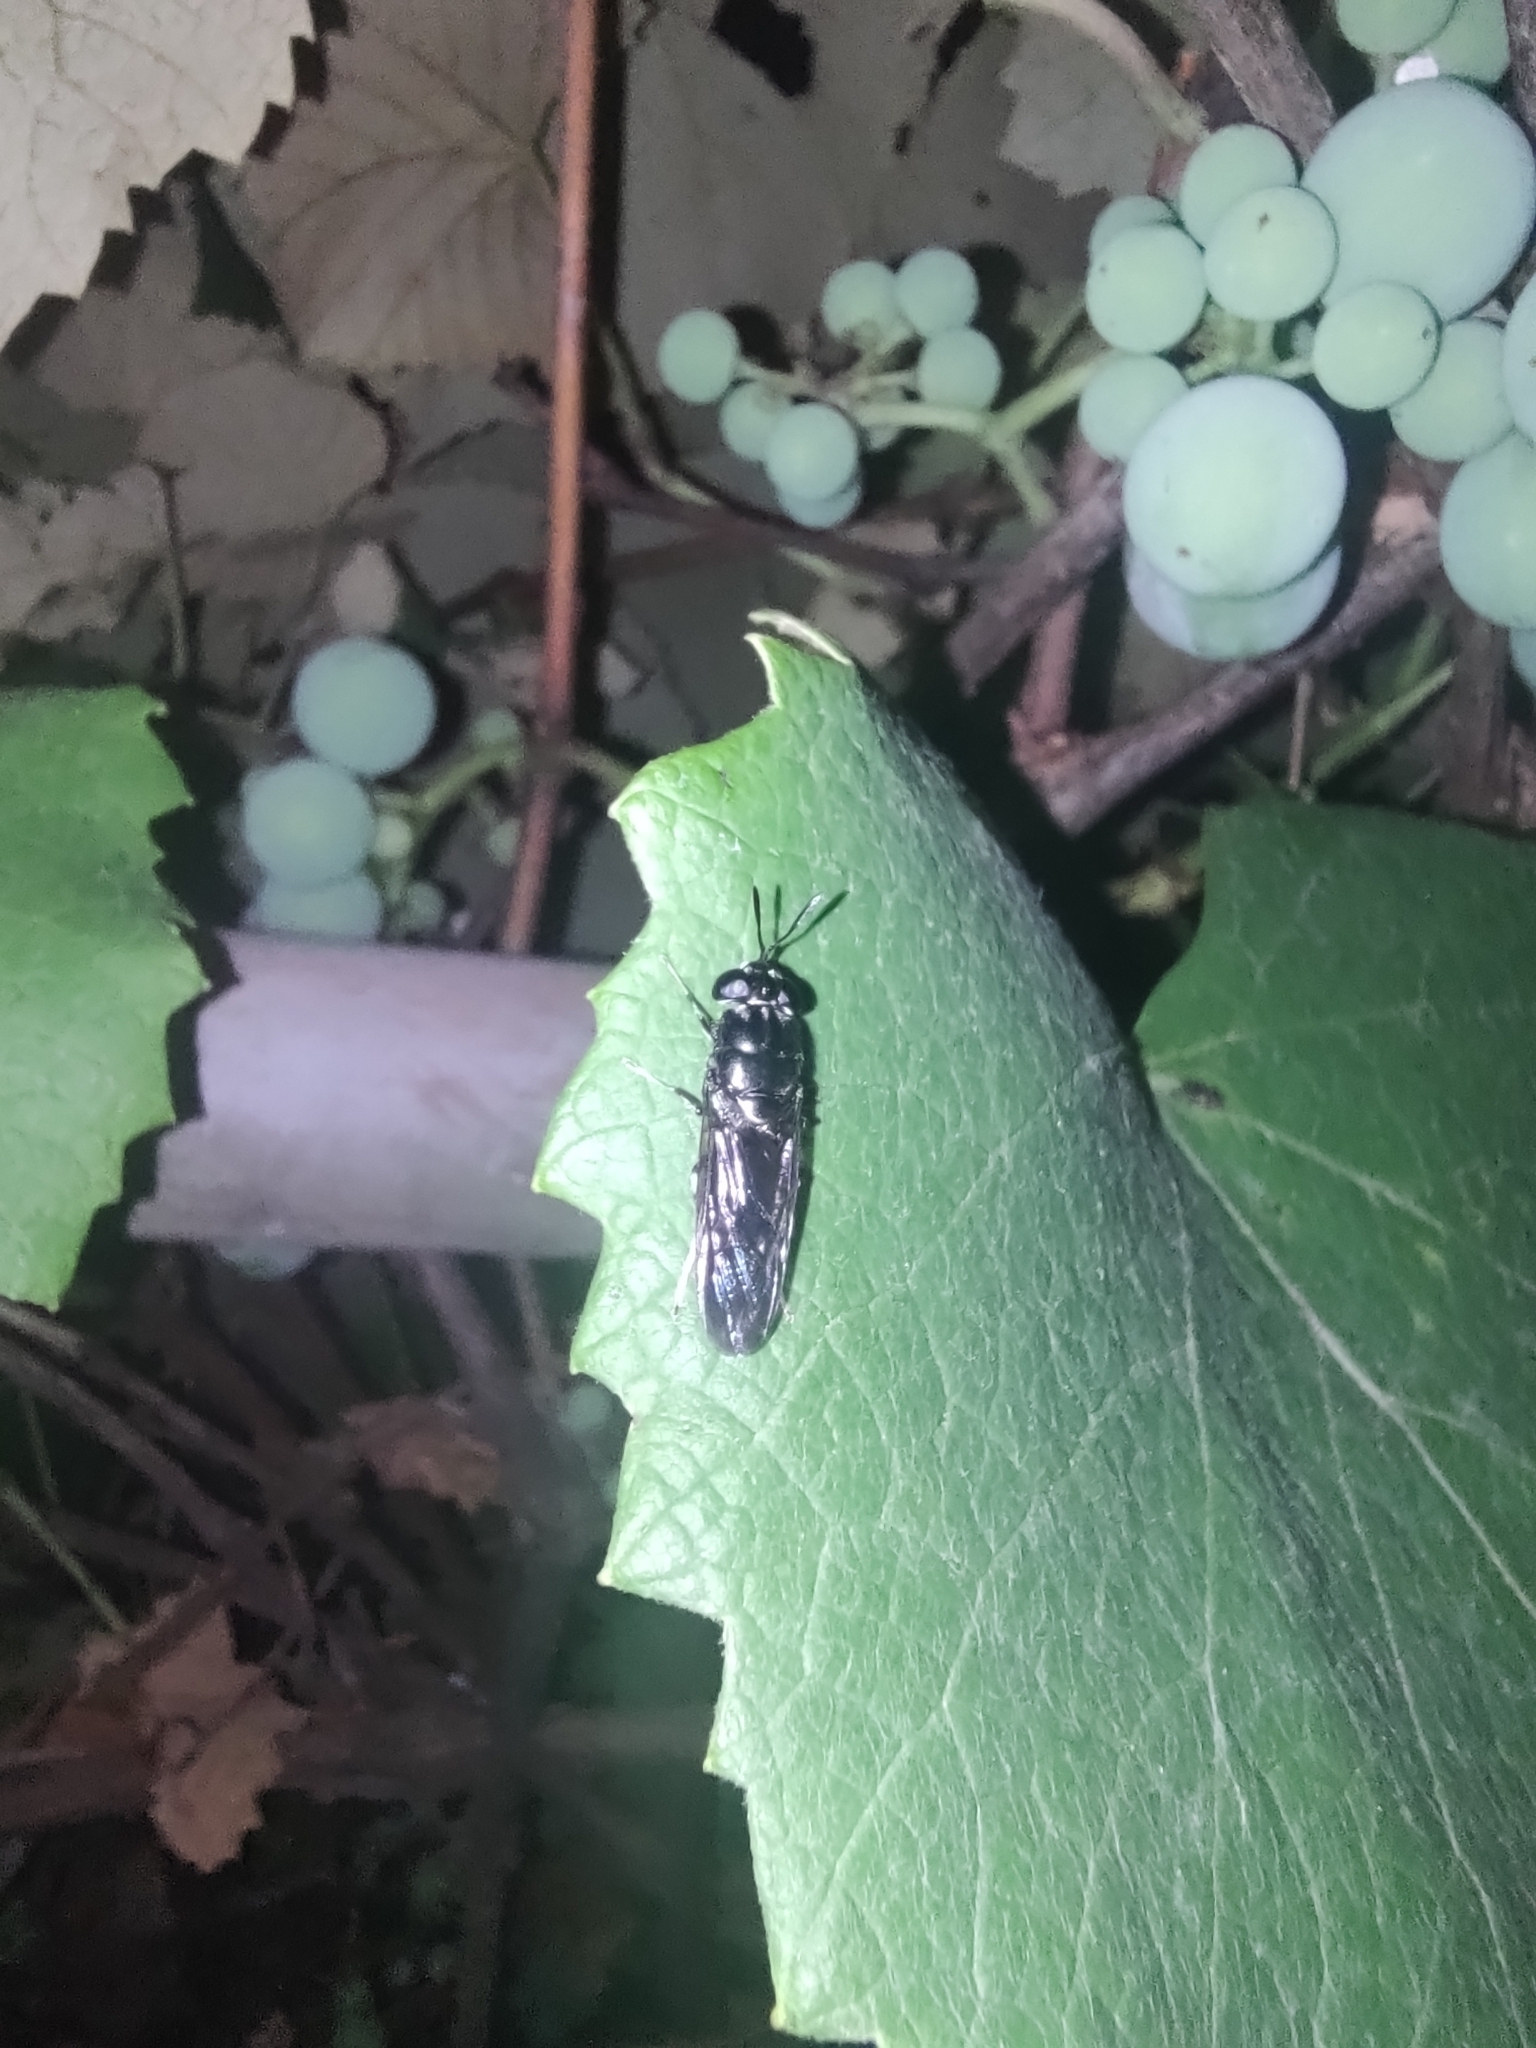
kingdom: Animalia
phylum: Arthropoda
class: Insecta
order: Diptera
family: Stratiomyidae
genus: Hermetia
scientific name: Hermetia illucens
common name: Black soldier fly
